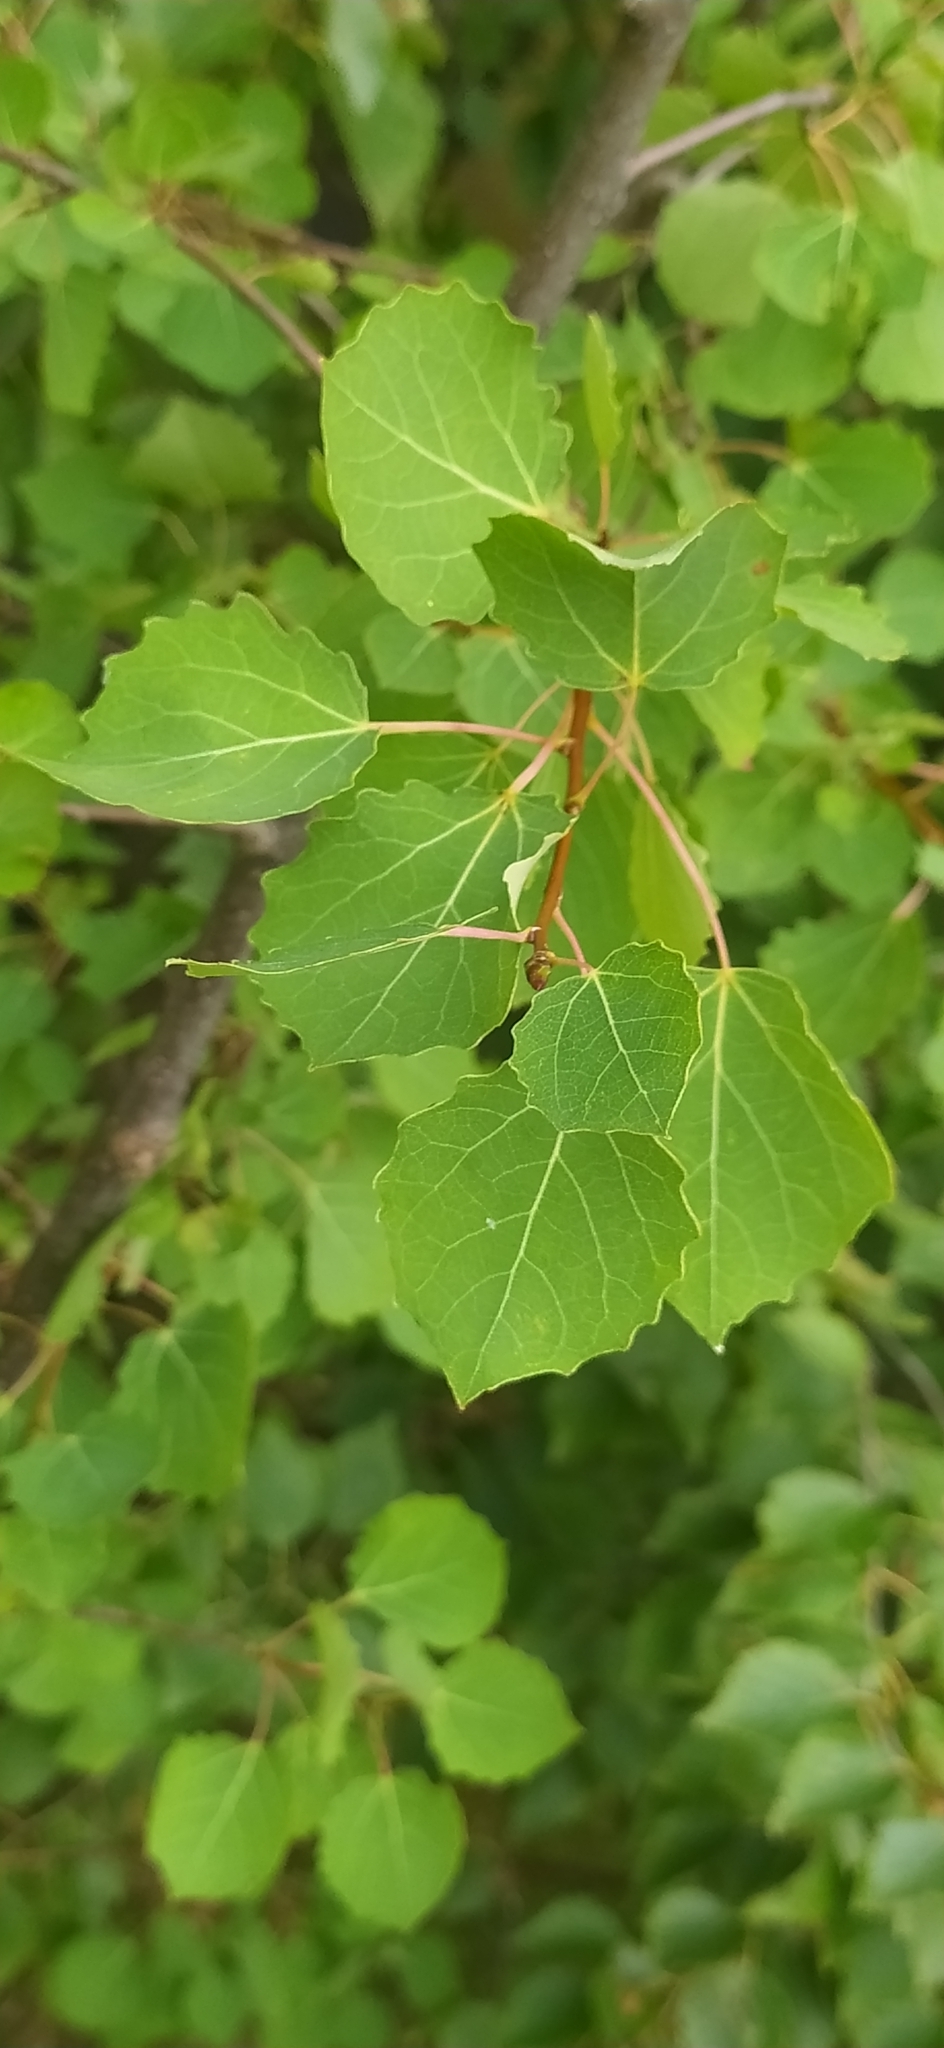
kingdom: Plantae
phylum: Tracheophyta
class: Magnoliopsida
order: Malpighiales
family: Salicaceae
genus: Populus
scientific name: Populus tremula
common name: European aspen
